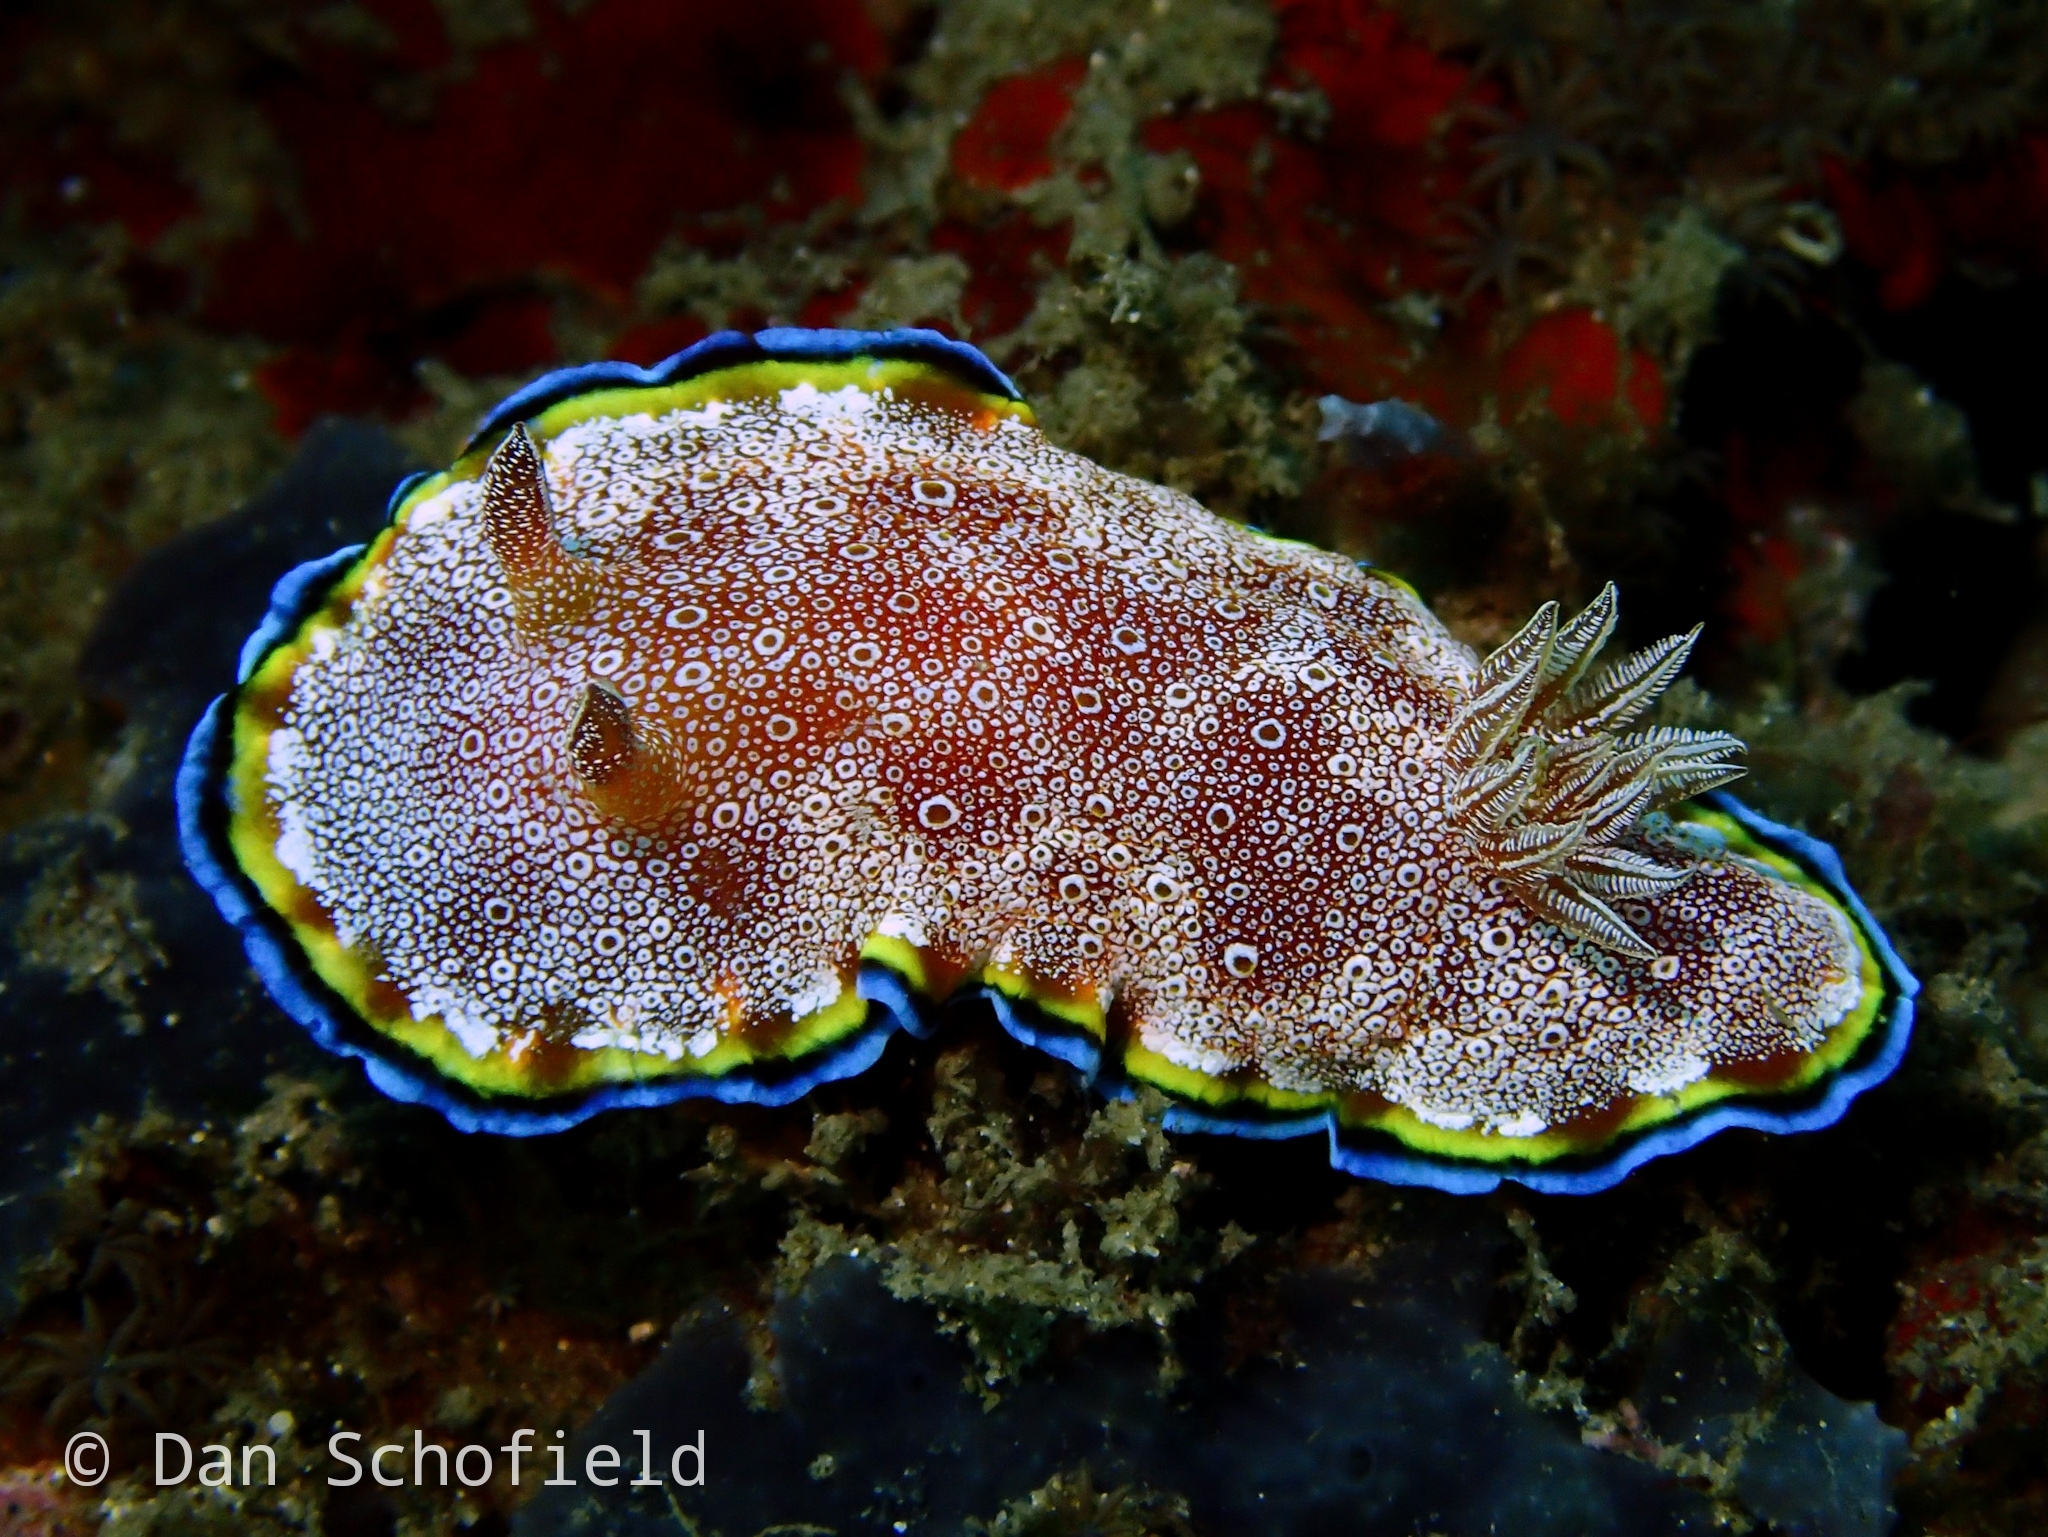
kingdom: Animalia
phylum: Mollusca
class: Gastropoda
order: Nudibranchia
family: Chromodorididae
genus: Goniobranchus
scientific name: Goniobranchus albopunctatus
